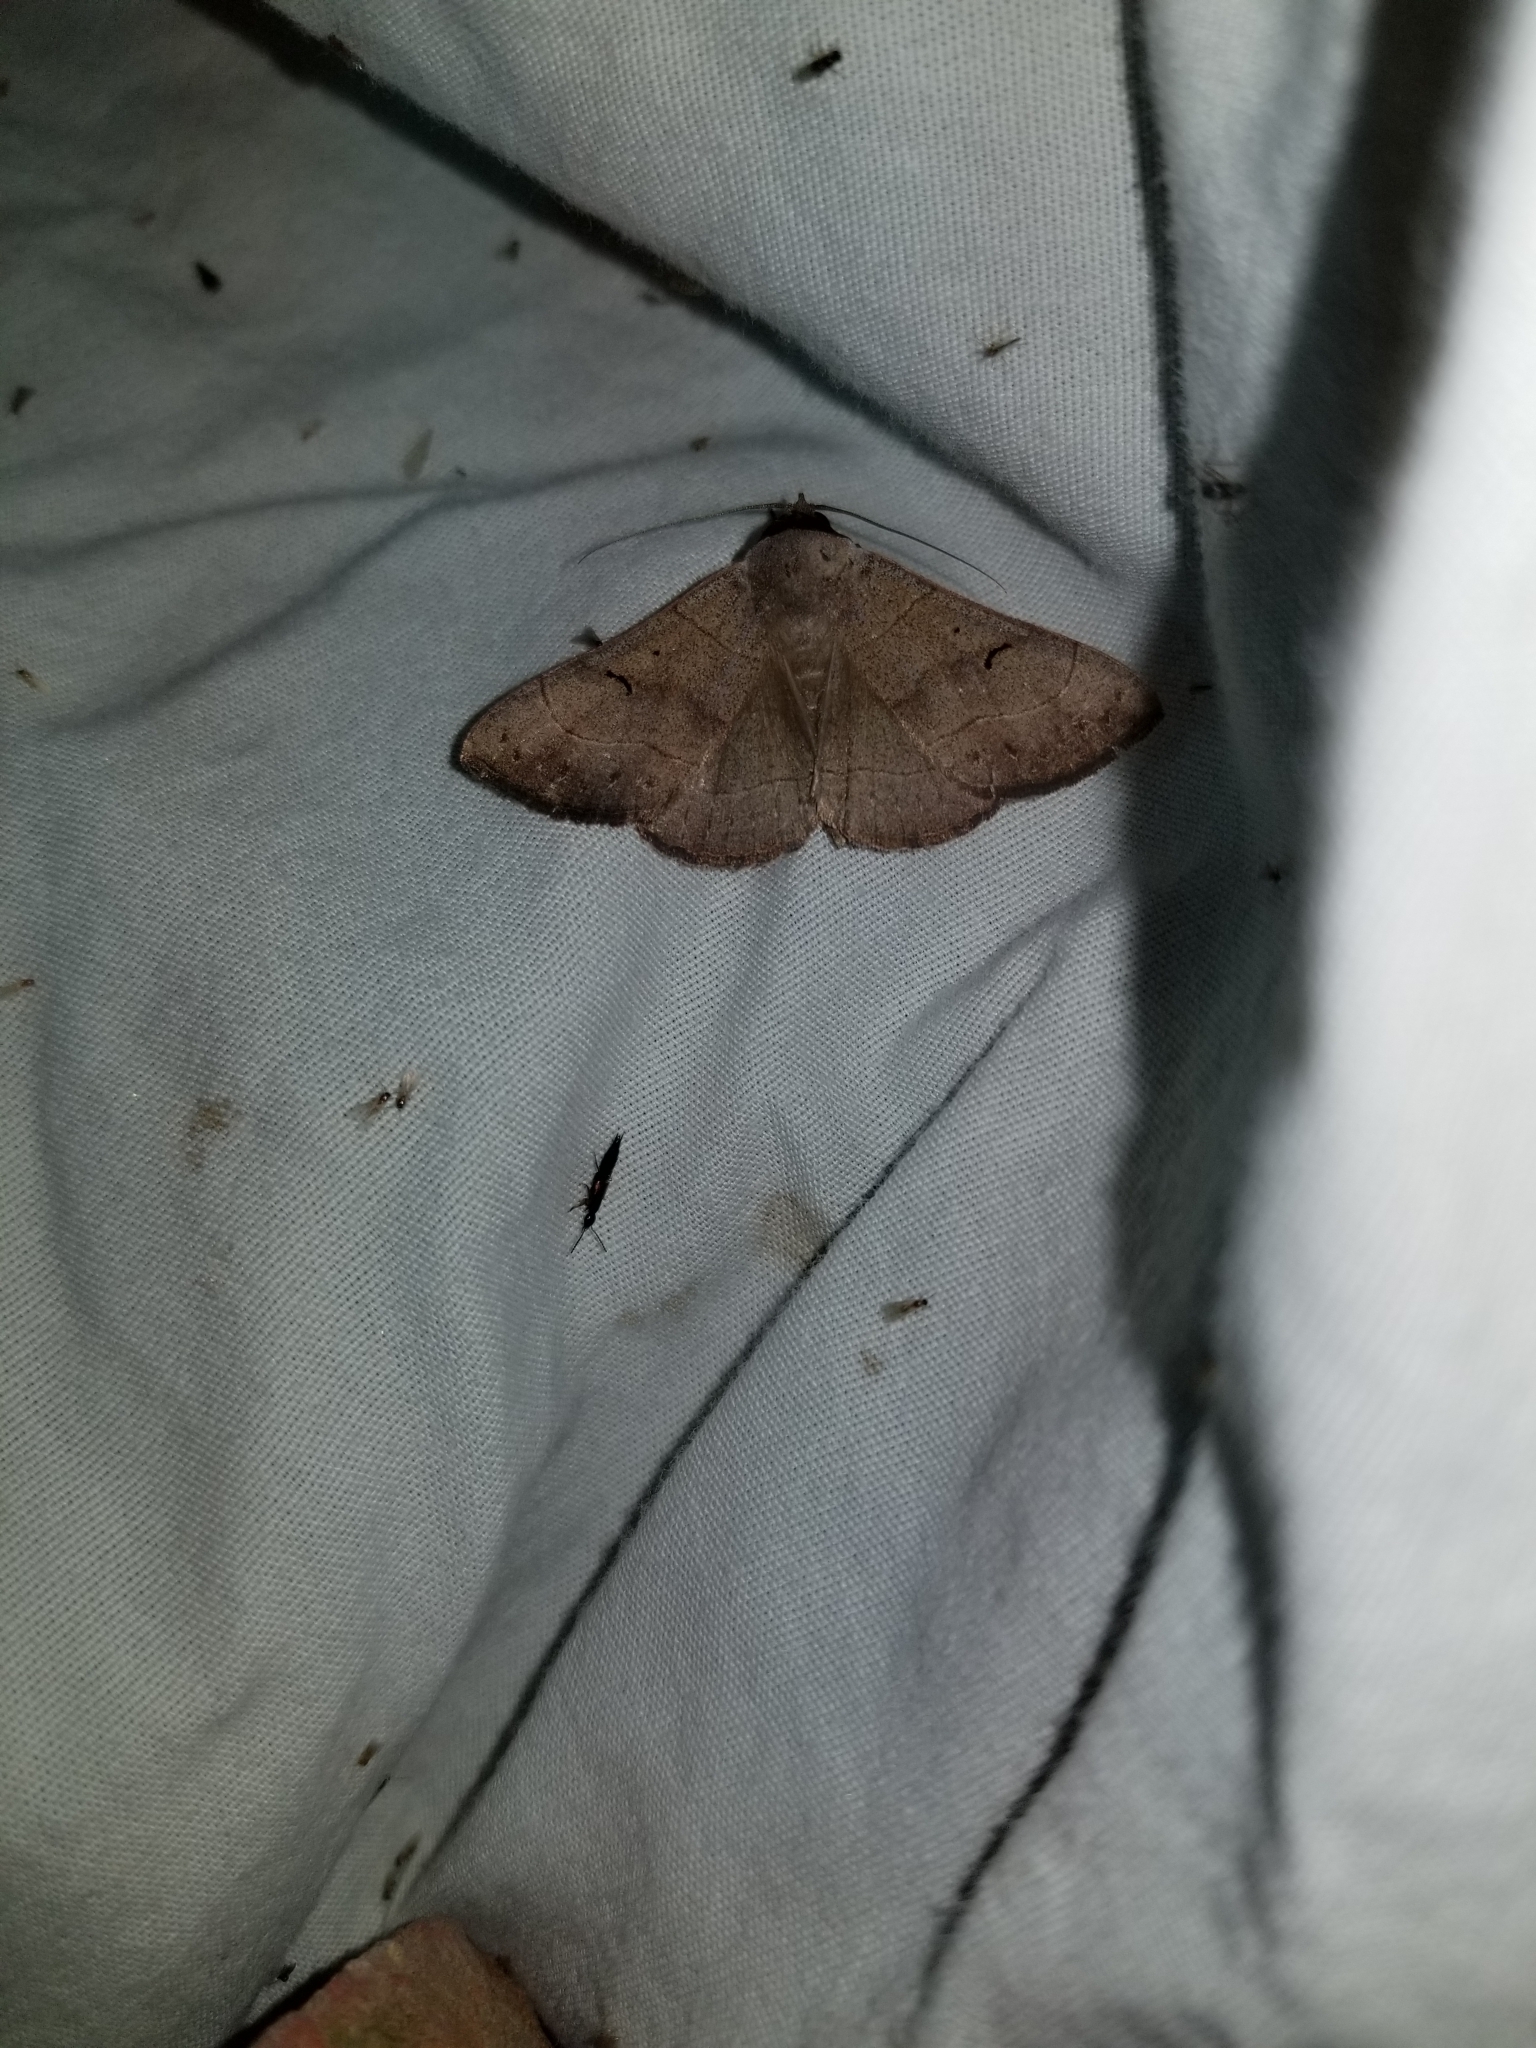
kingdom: Animalia
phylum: Arthropoda
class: Insecta
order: Lepidoptera
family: Erebidae
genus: Panopoda
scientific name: Panopoda carneicosta
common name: Brown panopoda moth
